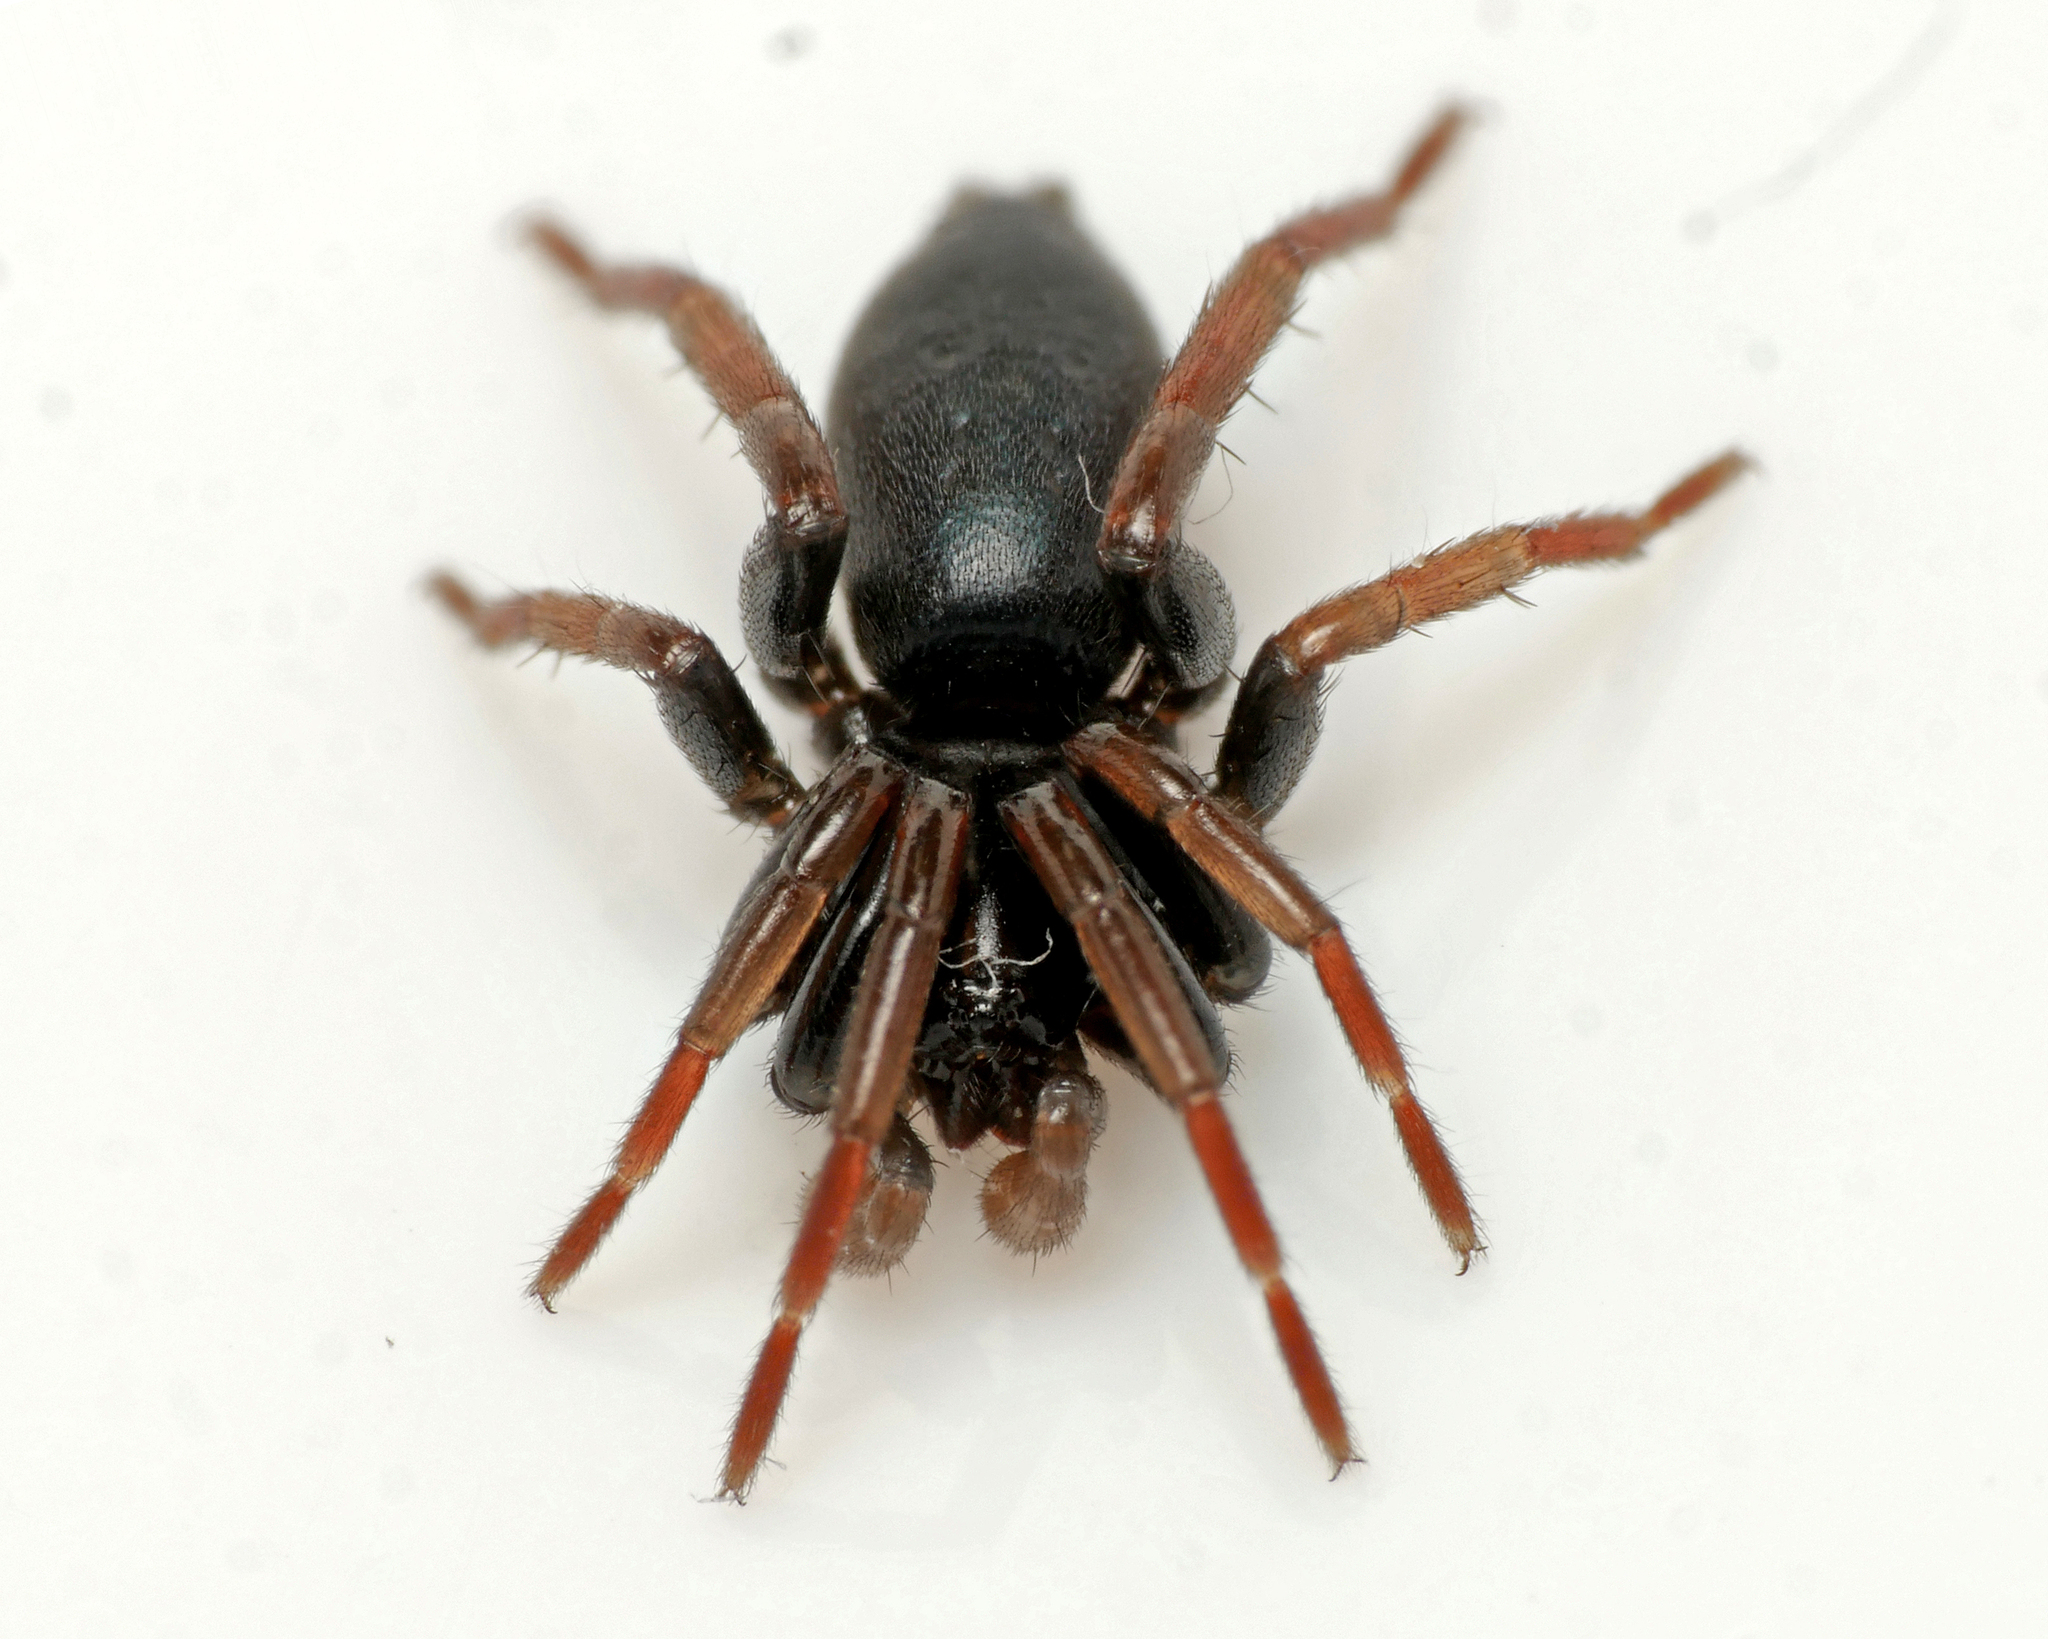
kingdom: Animalia
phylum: Arthropoda
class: Arachnida
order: Araneae
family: Gnaphosidae
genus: Trachyzelotes
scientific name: Trachyzelotes pedestris
